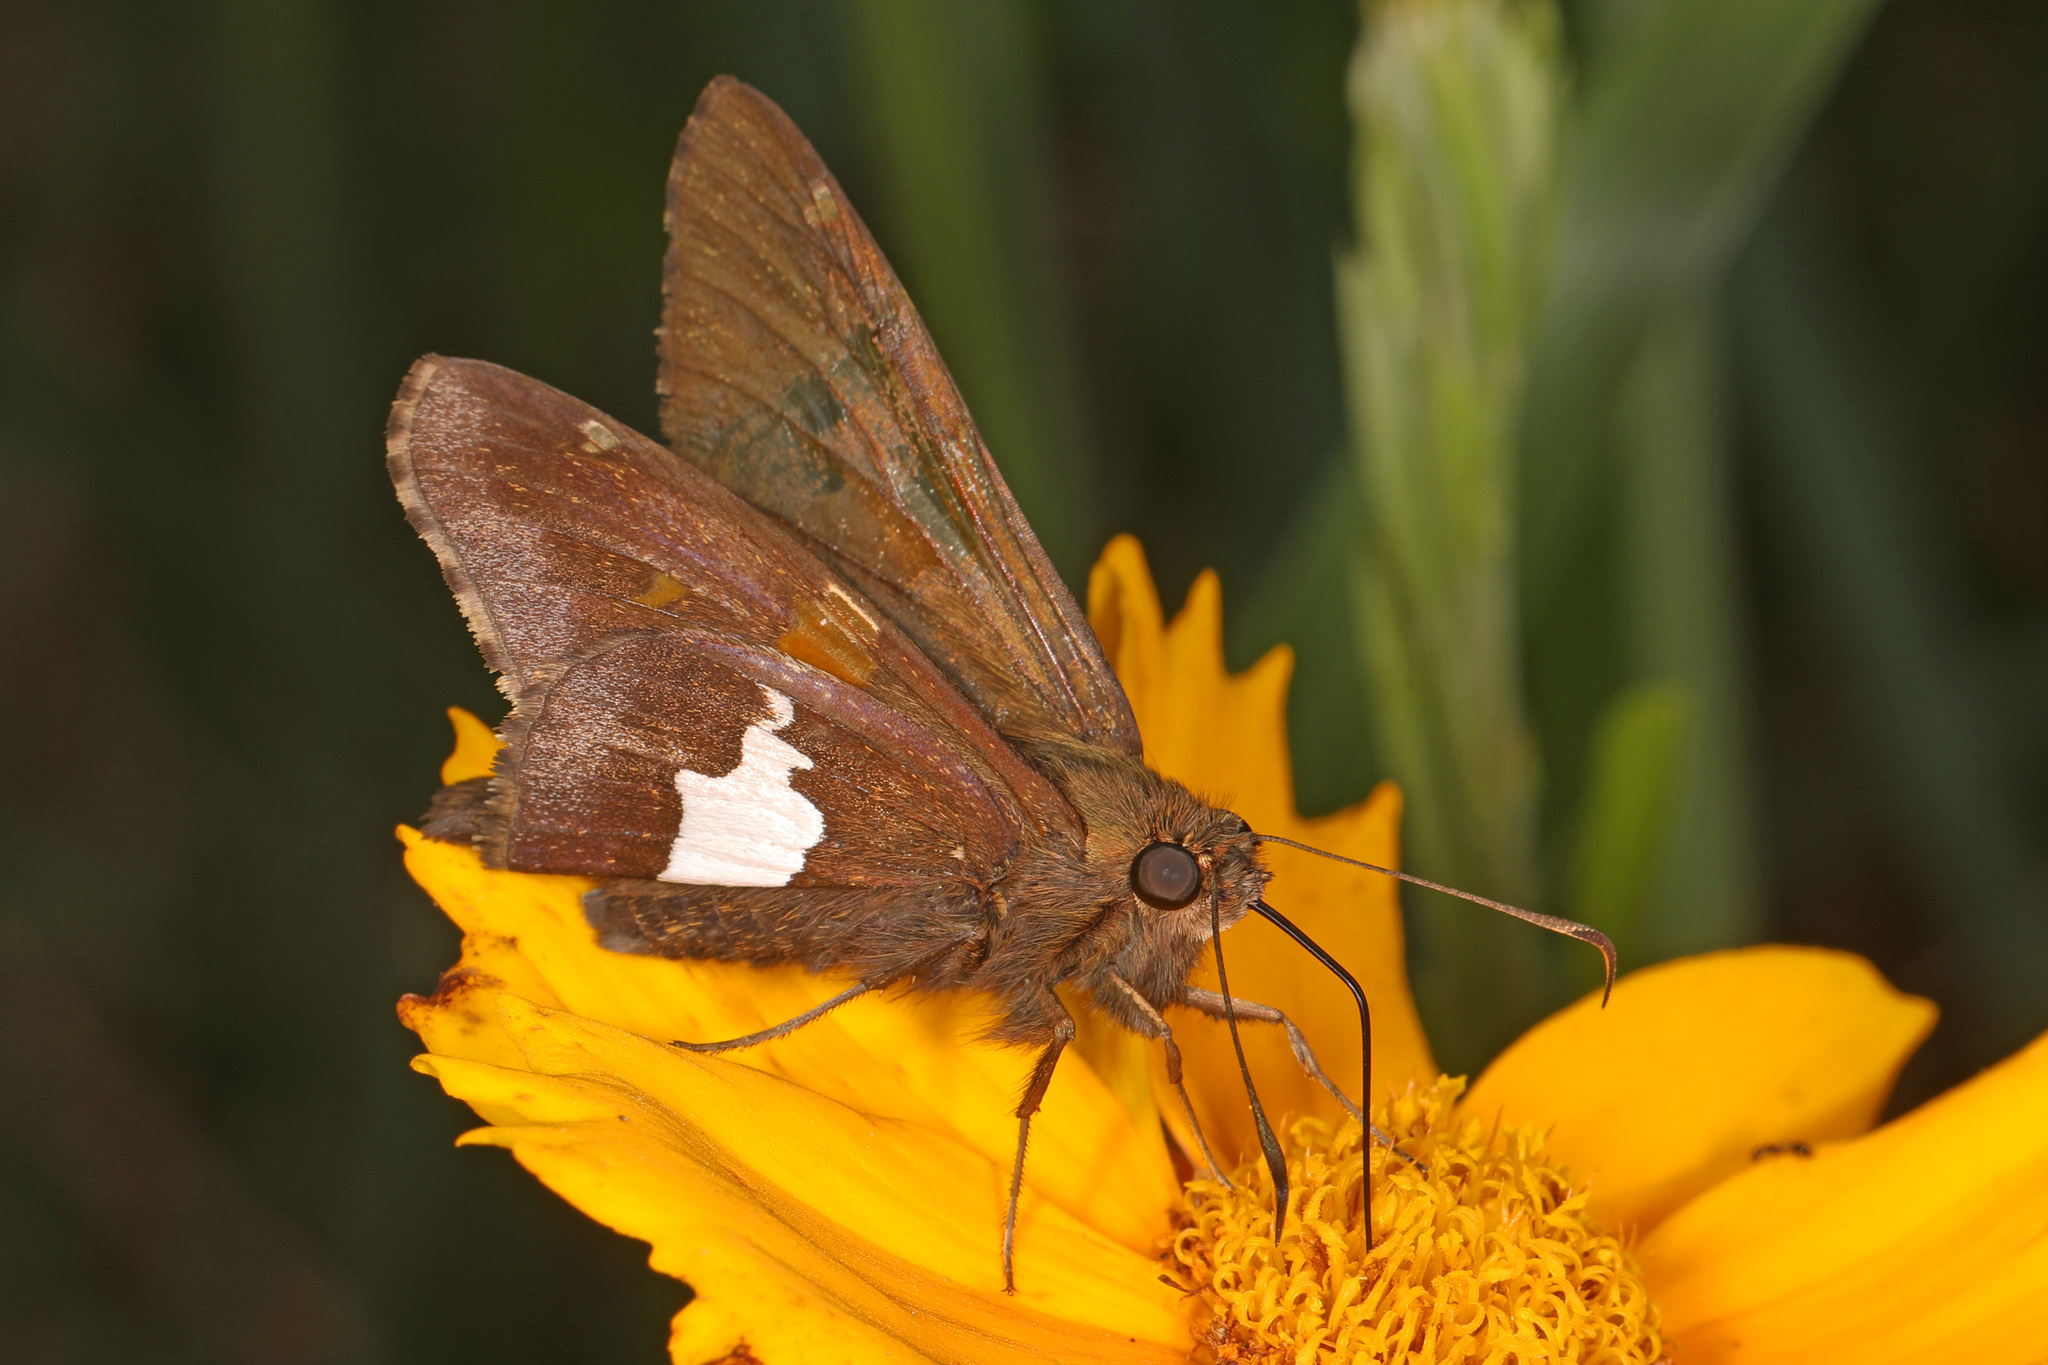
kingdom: Animalia
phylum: Arthropoda
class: Insecta
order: Lepidoptera
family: Hesperiidae
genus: Epargyreus
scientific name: Epargyreus clarus
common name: Silver-spotted skipper
